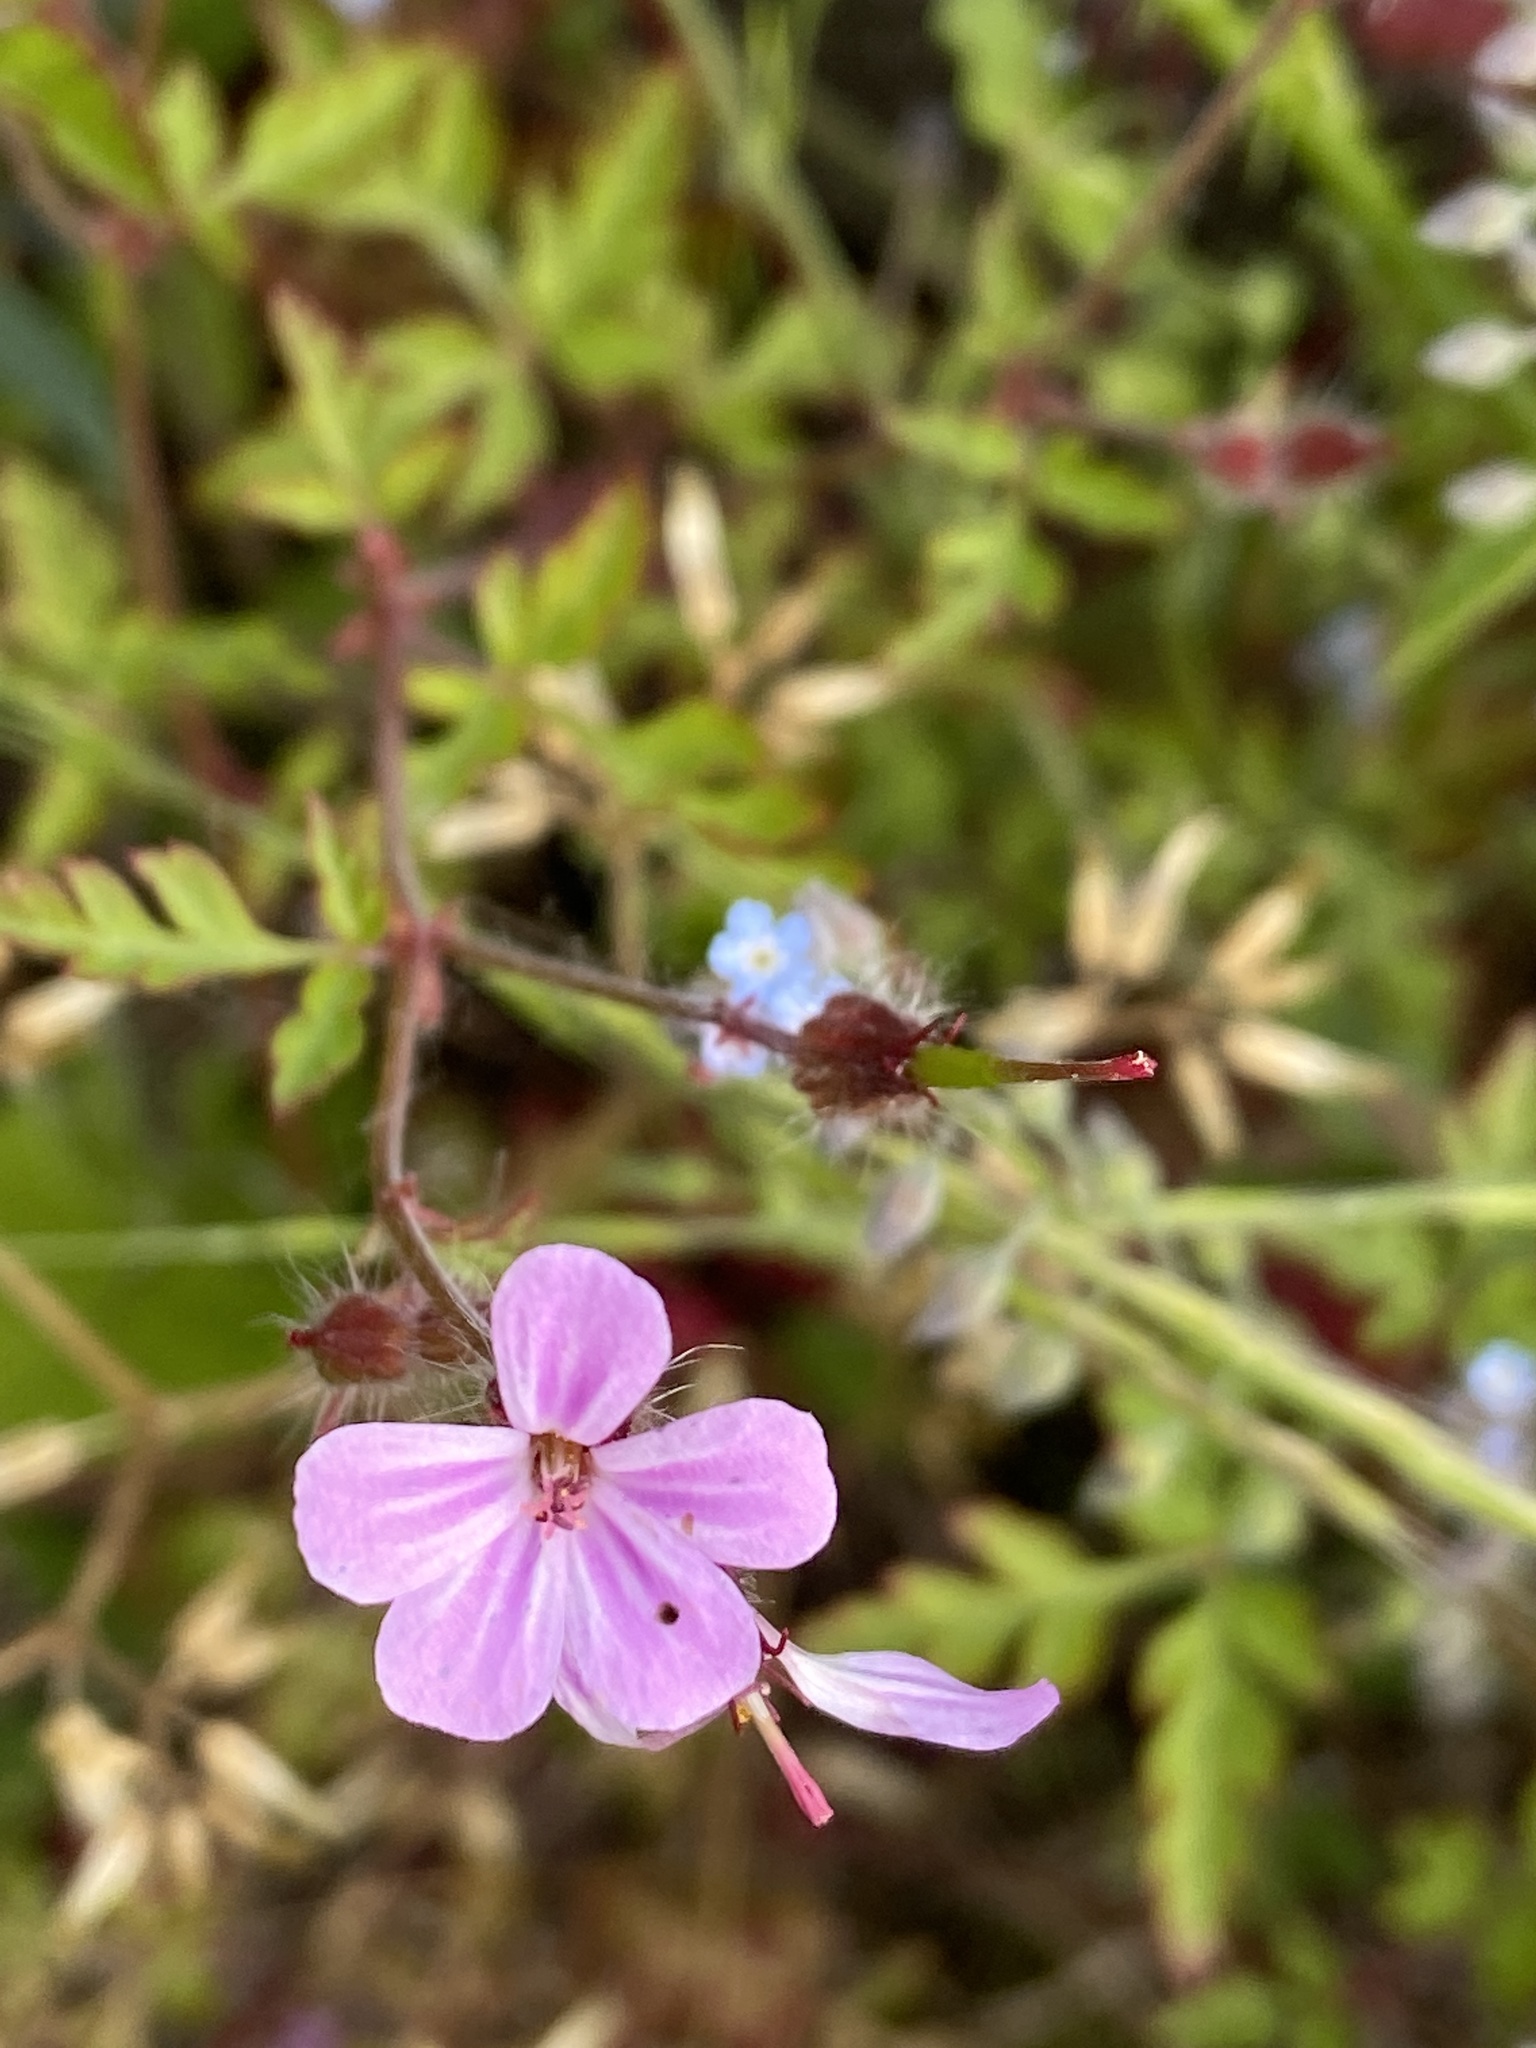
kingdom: Plantae
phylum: Tracheophyta
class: Magnoliopsida
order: Geraniales
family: Geraniaceae
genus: Geranium
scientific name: Geranium robertianum
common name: Herb-robert
